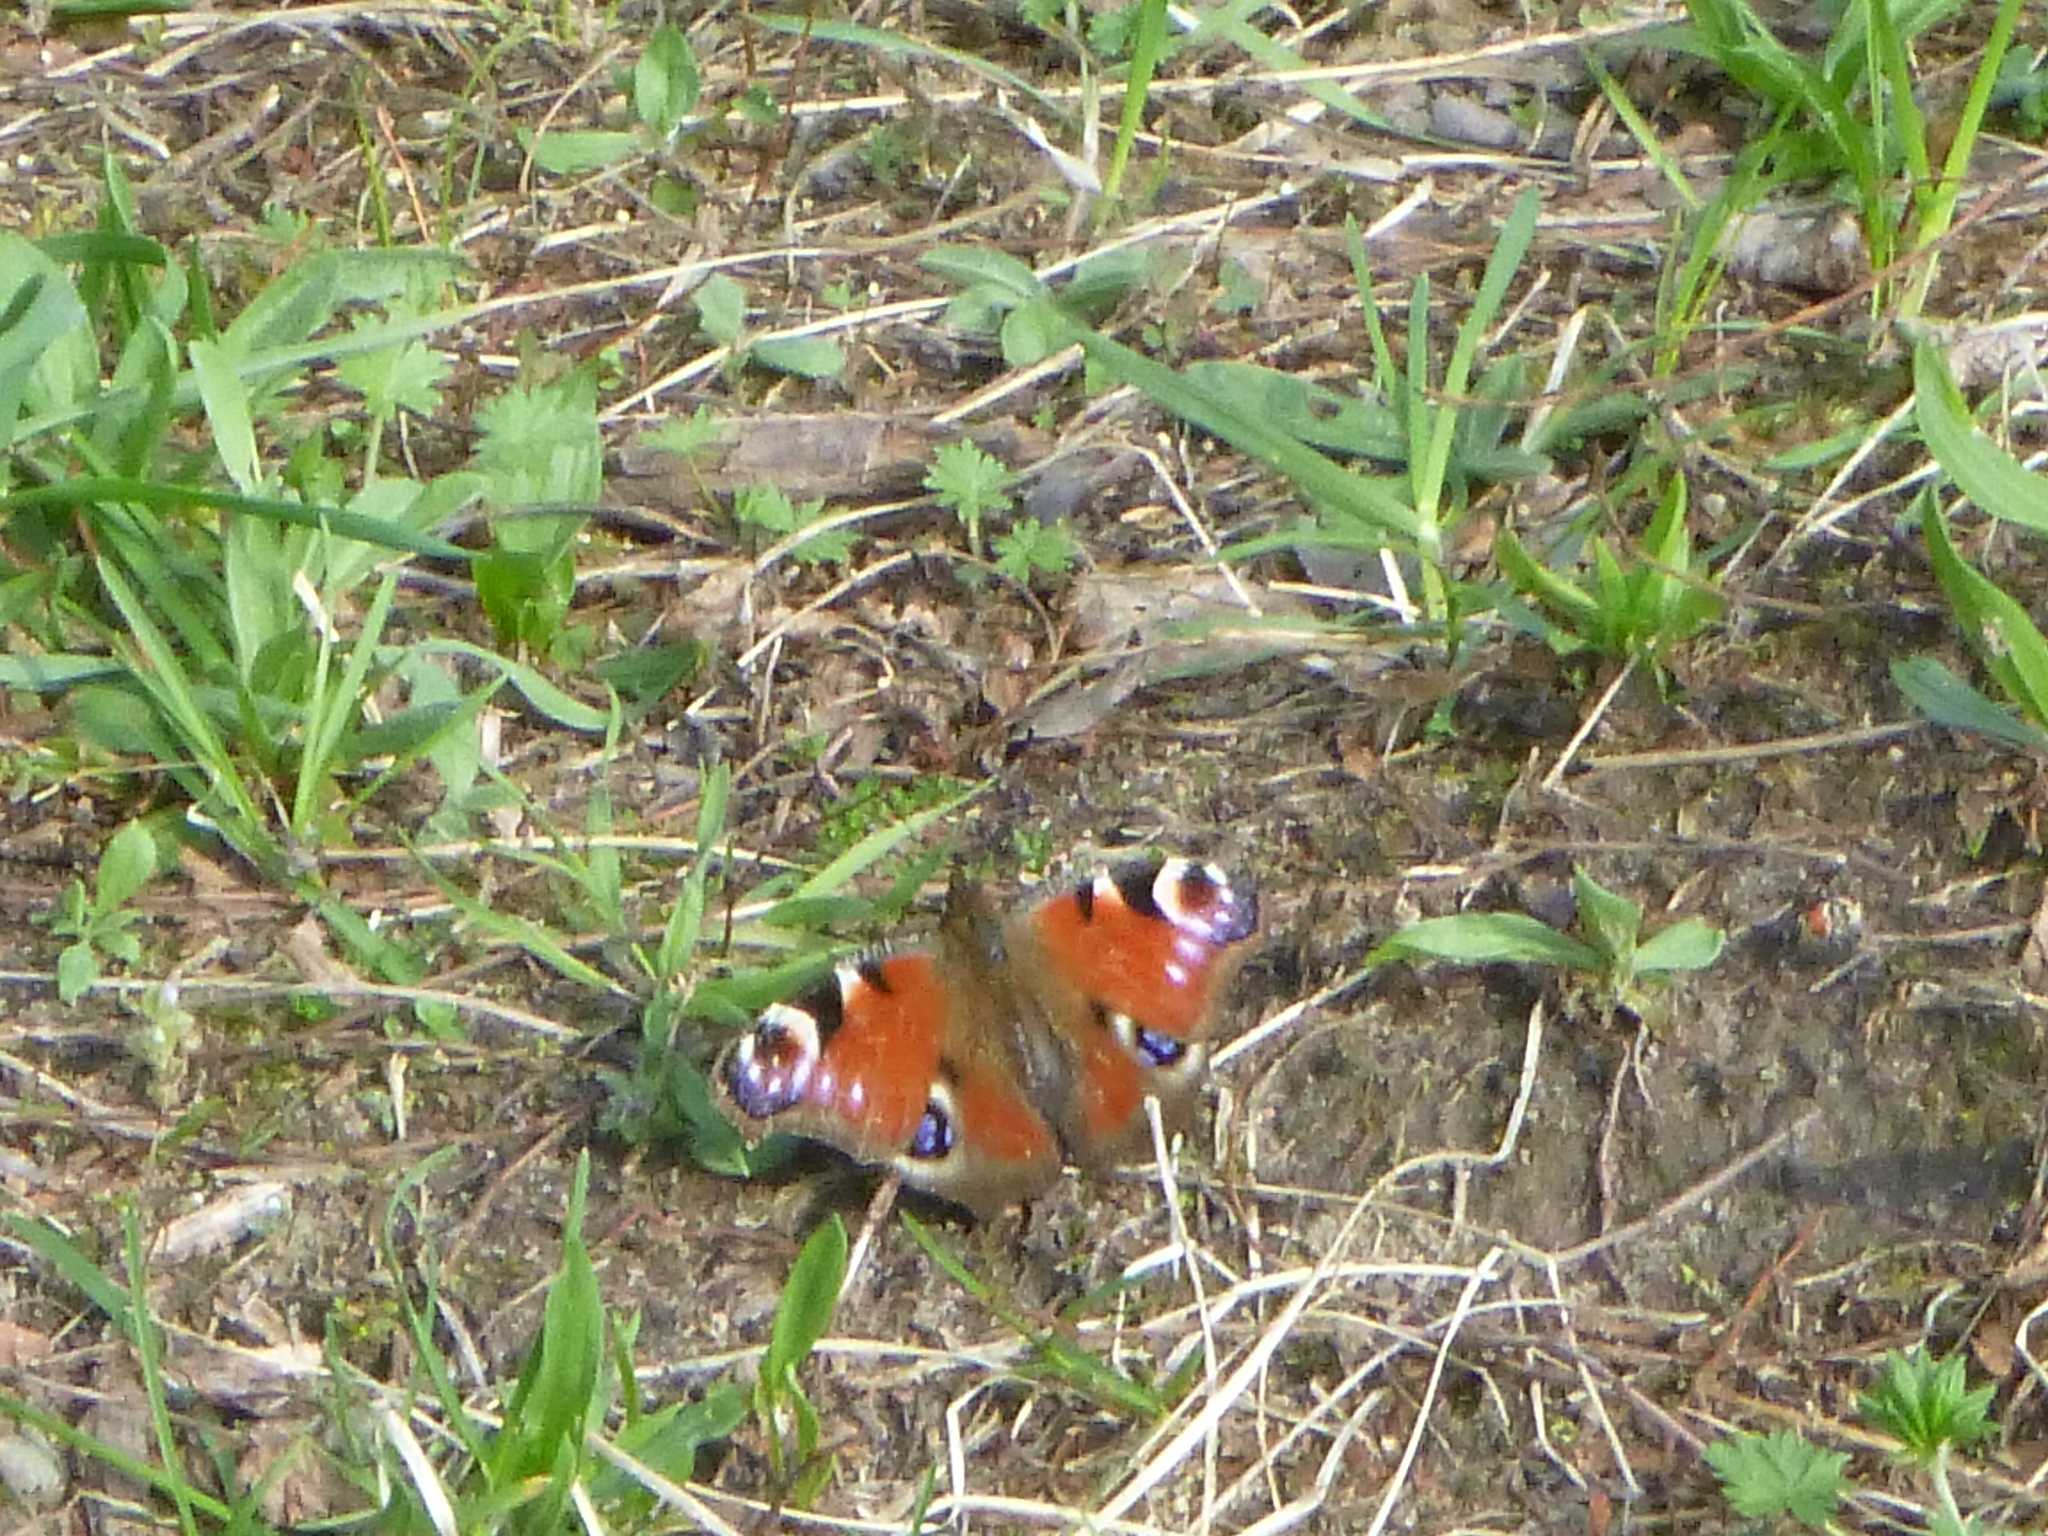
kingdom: Animalia
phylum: Arthropoda
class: Insecta
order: Lepidoptera
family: Nymphalidae
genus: Aglais
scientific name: Aglais io
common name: Peacock
